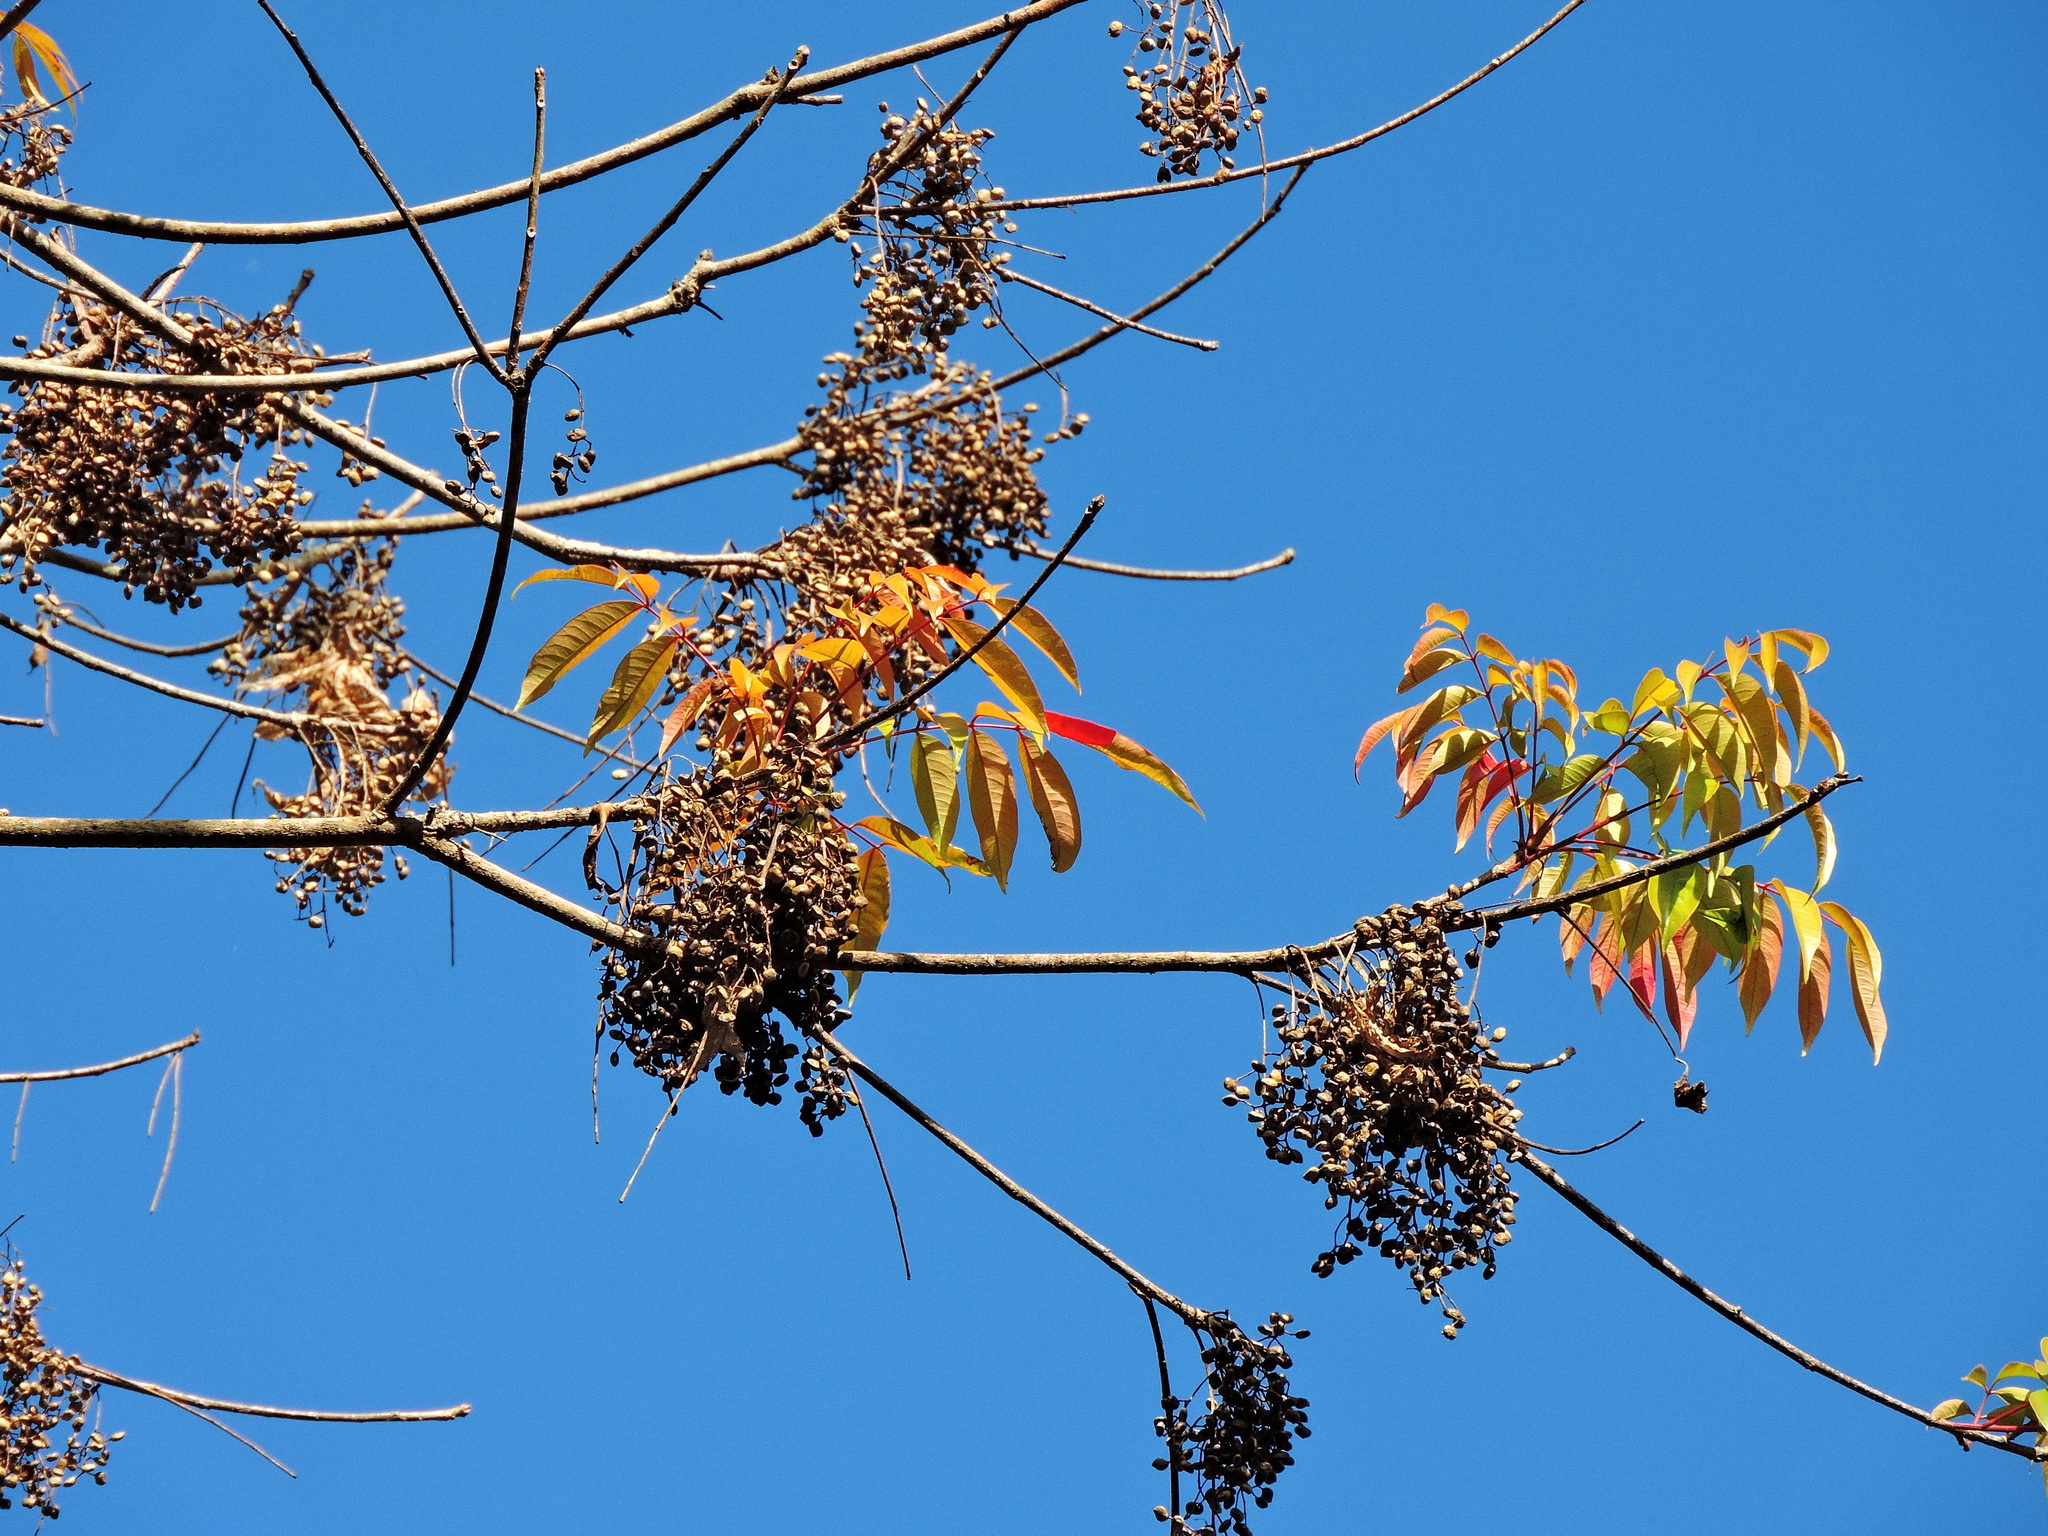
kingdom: Plantae
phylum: Tracheophyta
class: Magnoliopsida
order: Sapindales
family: Anacardiaceae
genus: Toxicodendron
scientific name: Toxicodendron sylvestre
